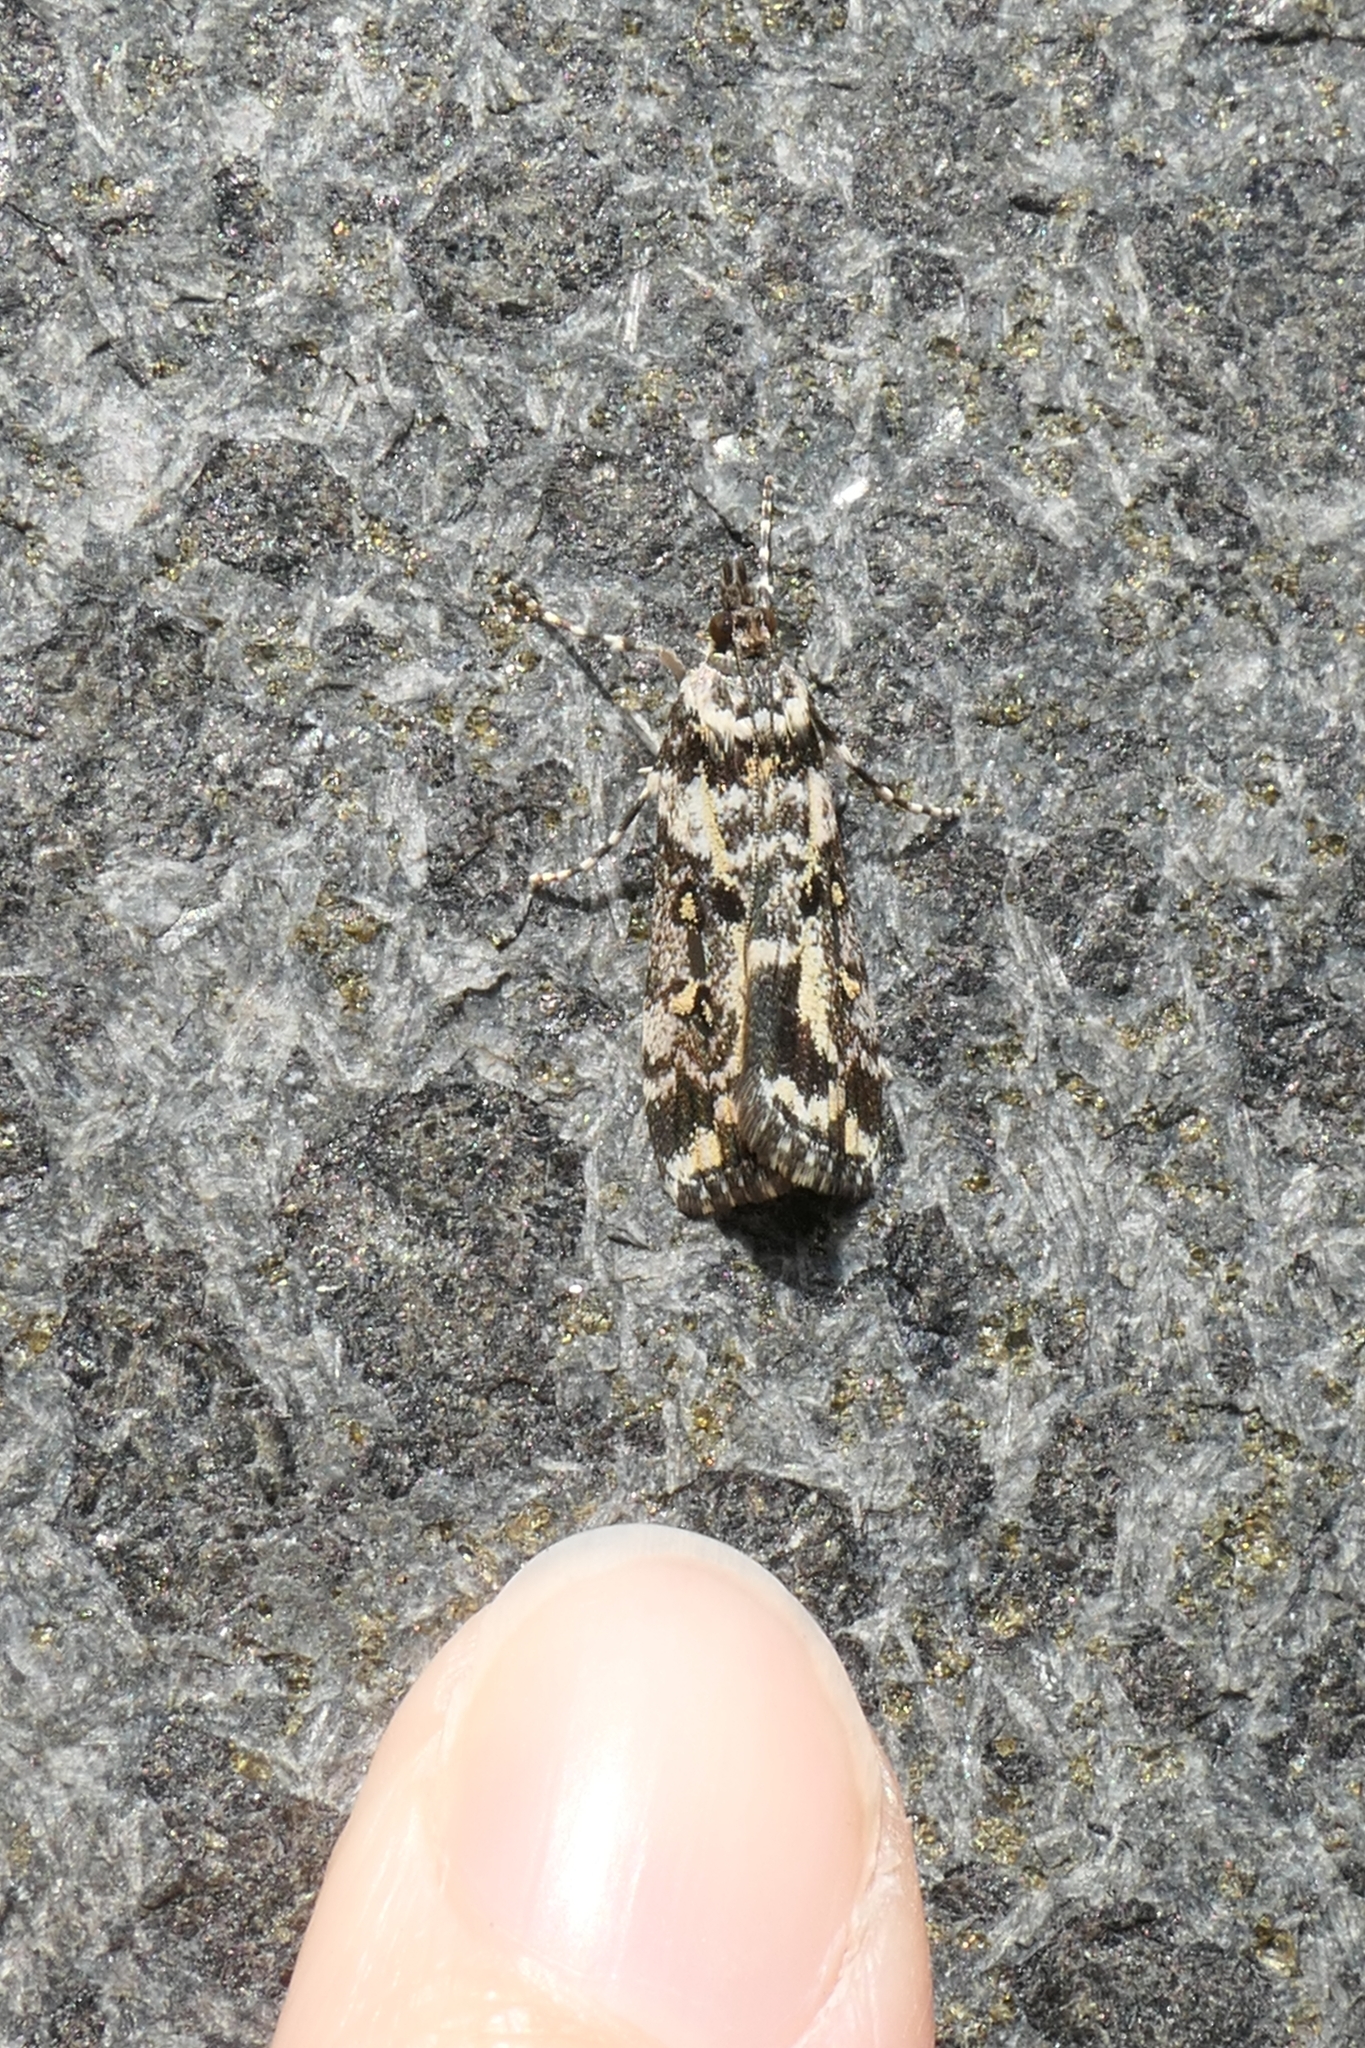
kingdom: Animalia
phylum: Arthropoda
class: Insecta
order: Lepidoptera
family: Crambidae
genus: Eudonia
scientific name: Eudonia diphtheralis
